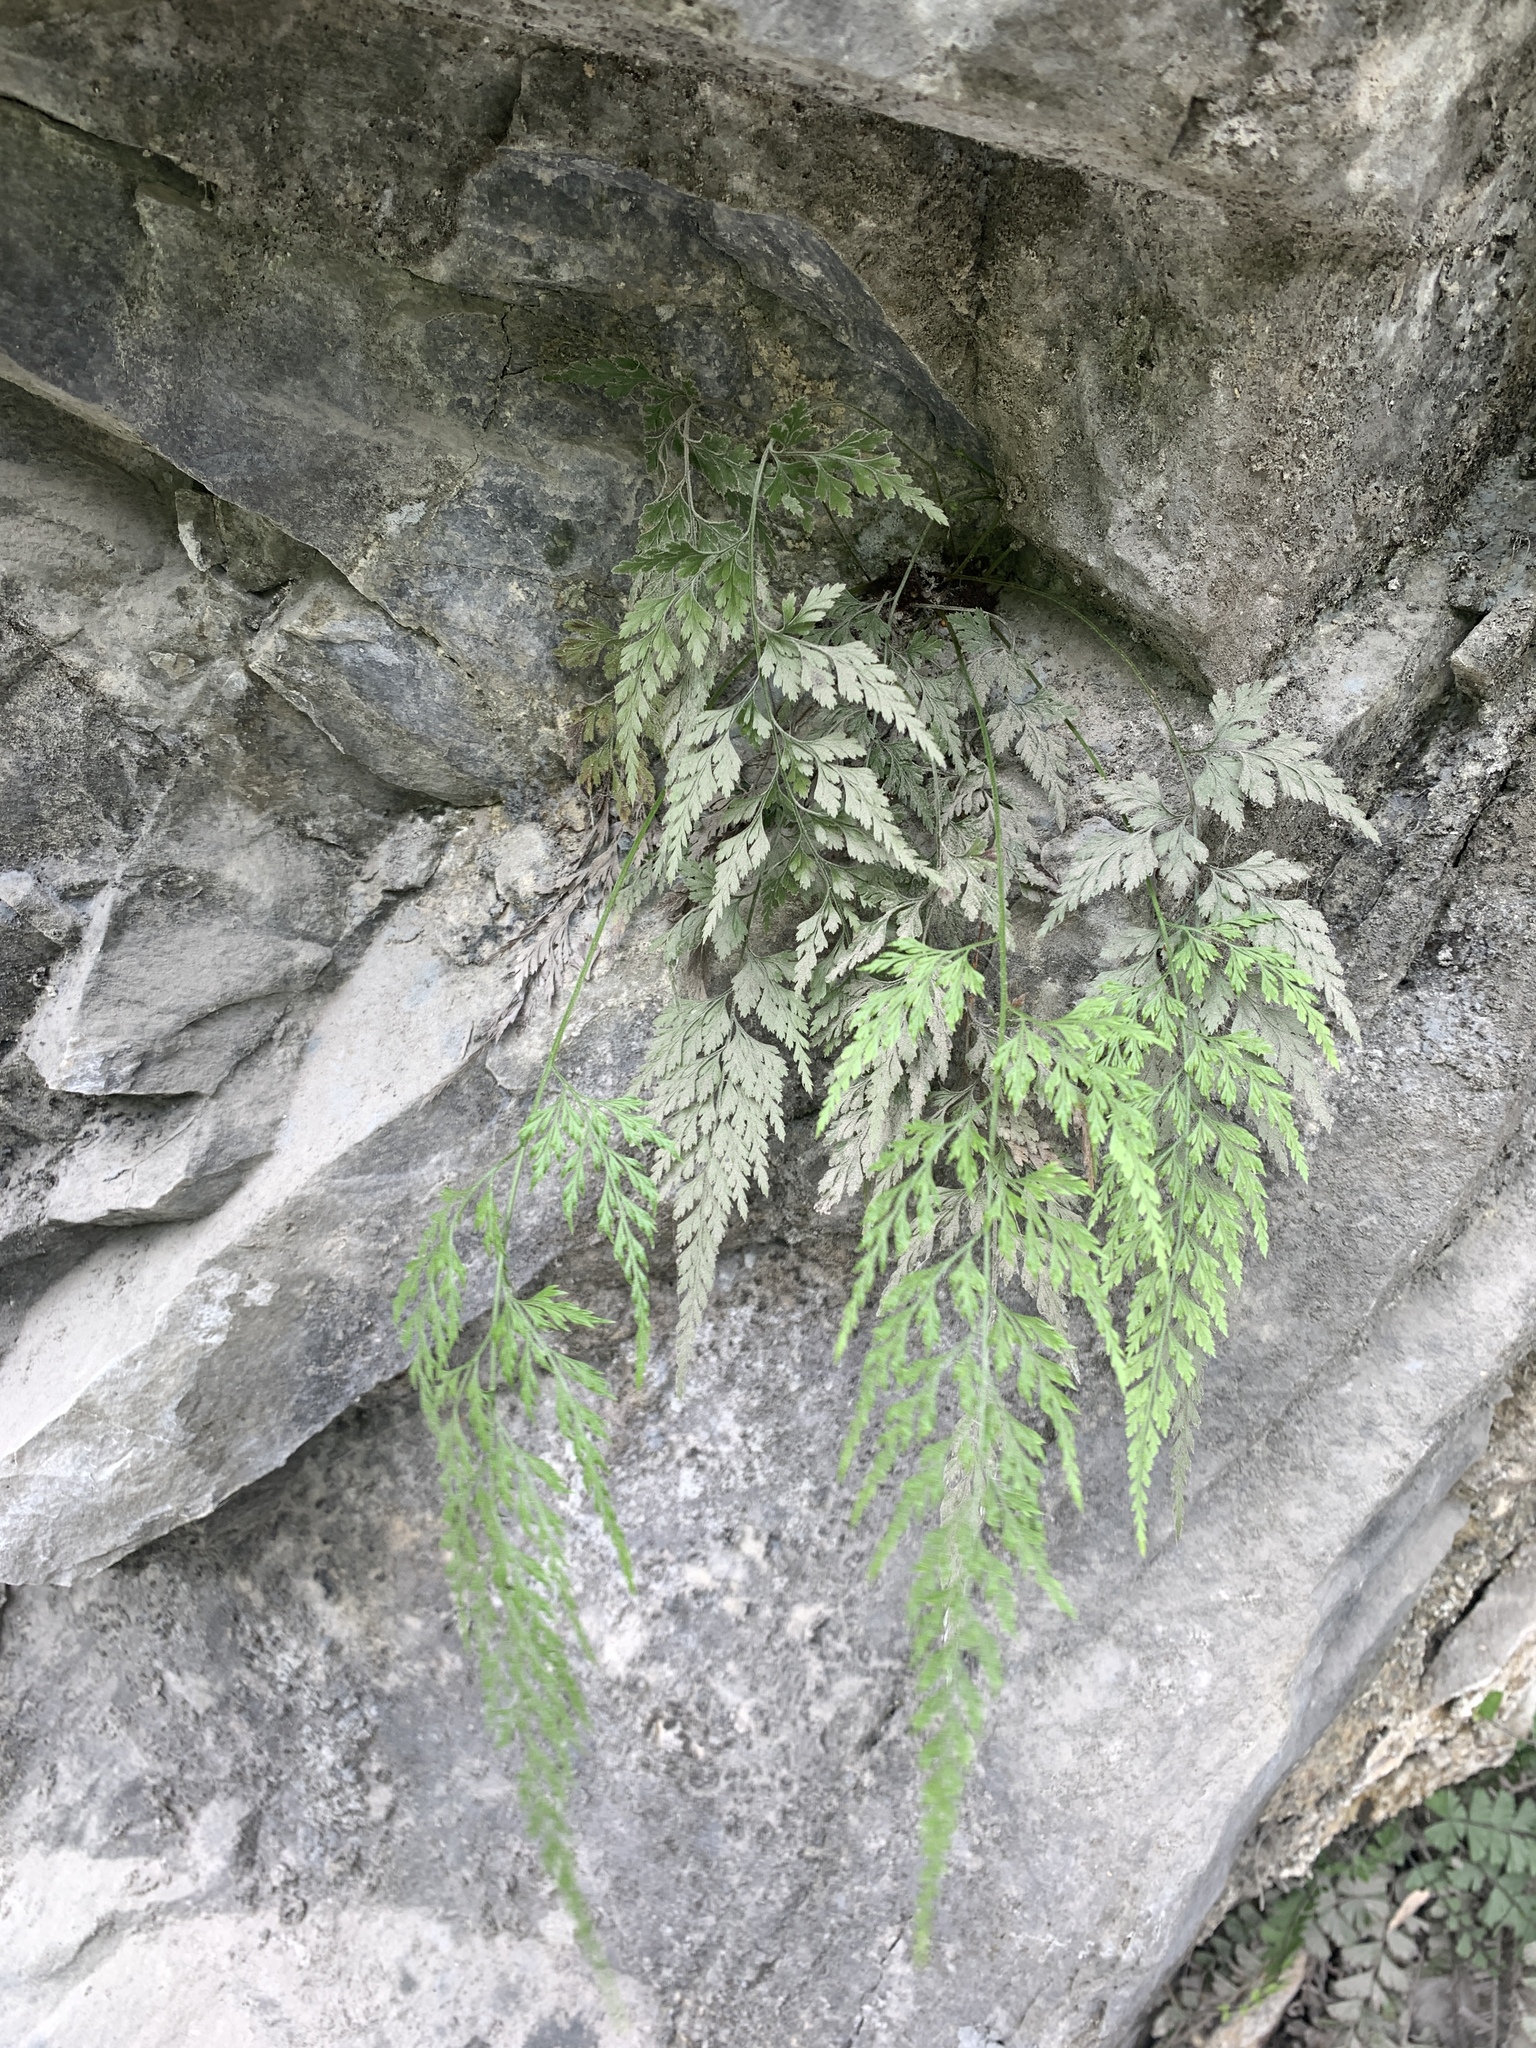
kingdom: Plantae
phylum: Tracheophyta
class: Polypodiopsida
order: Polypodiales
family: Pteridaceae
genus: Onychium
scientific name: Onychium japonicum
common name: Carrot fern
